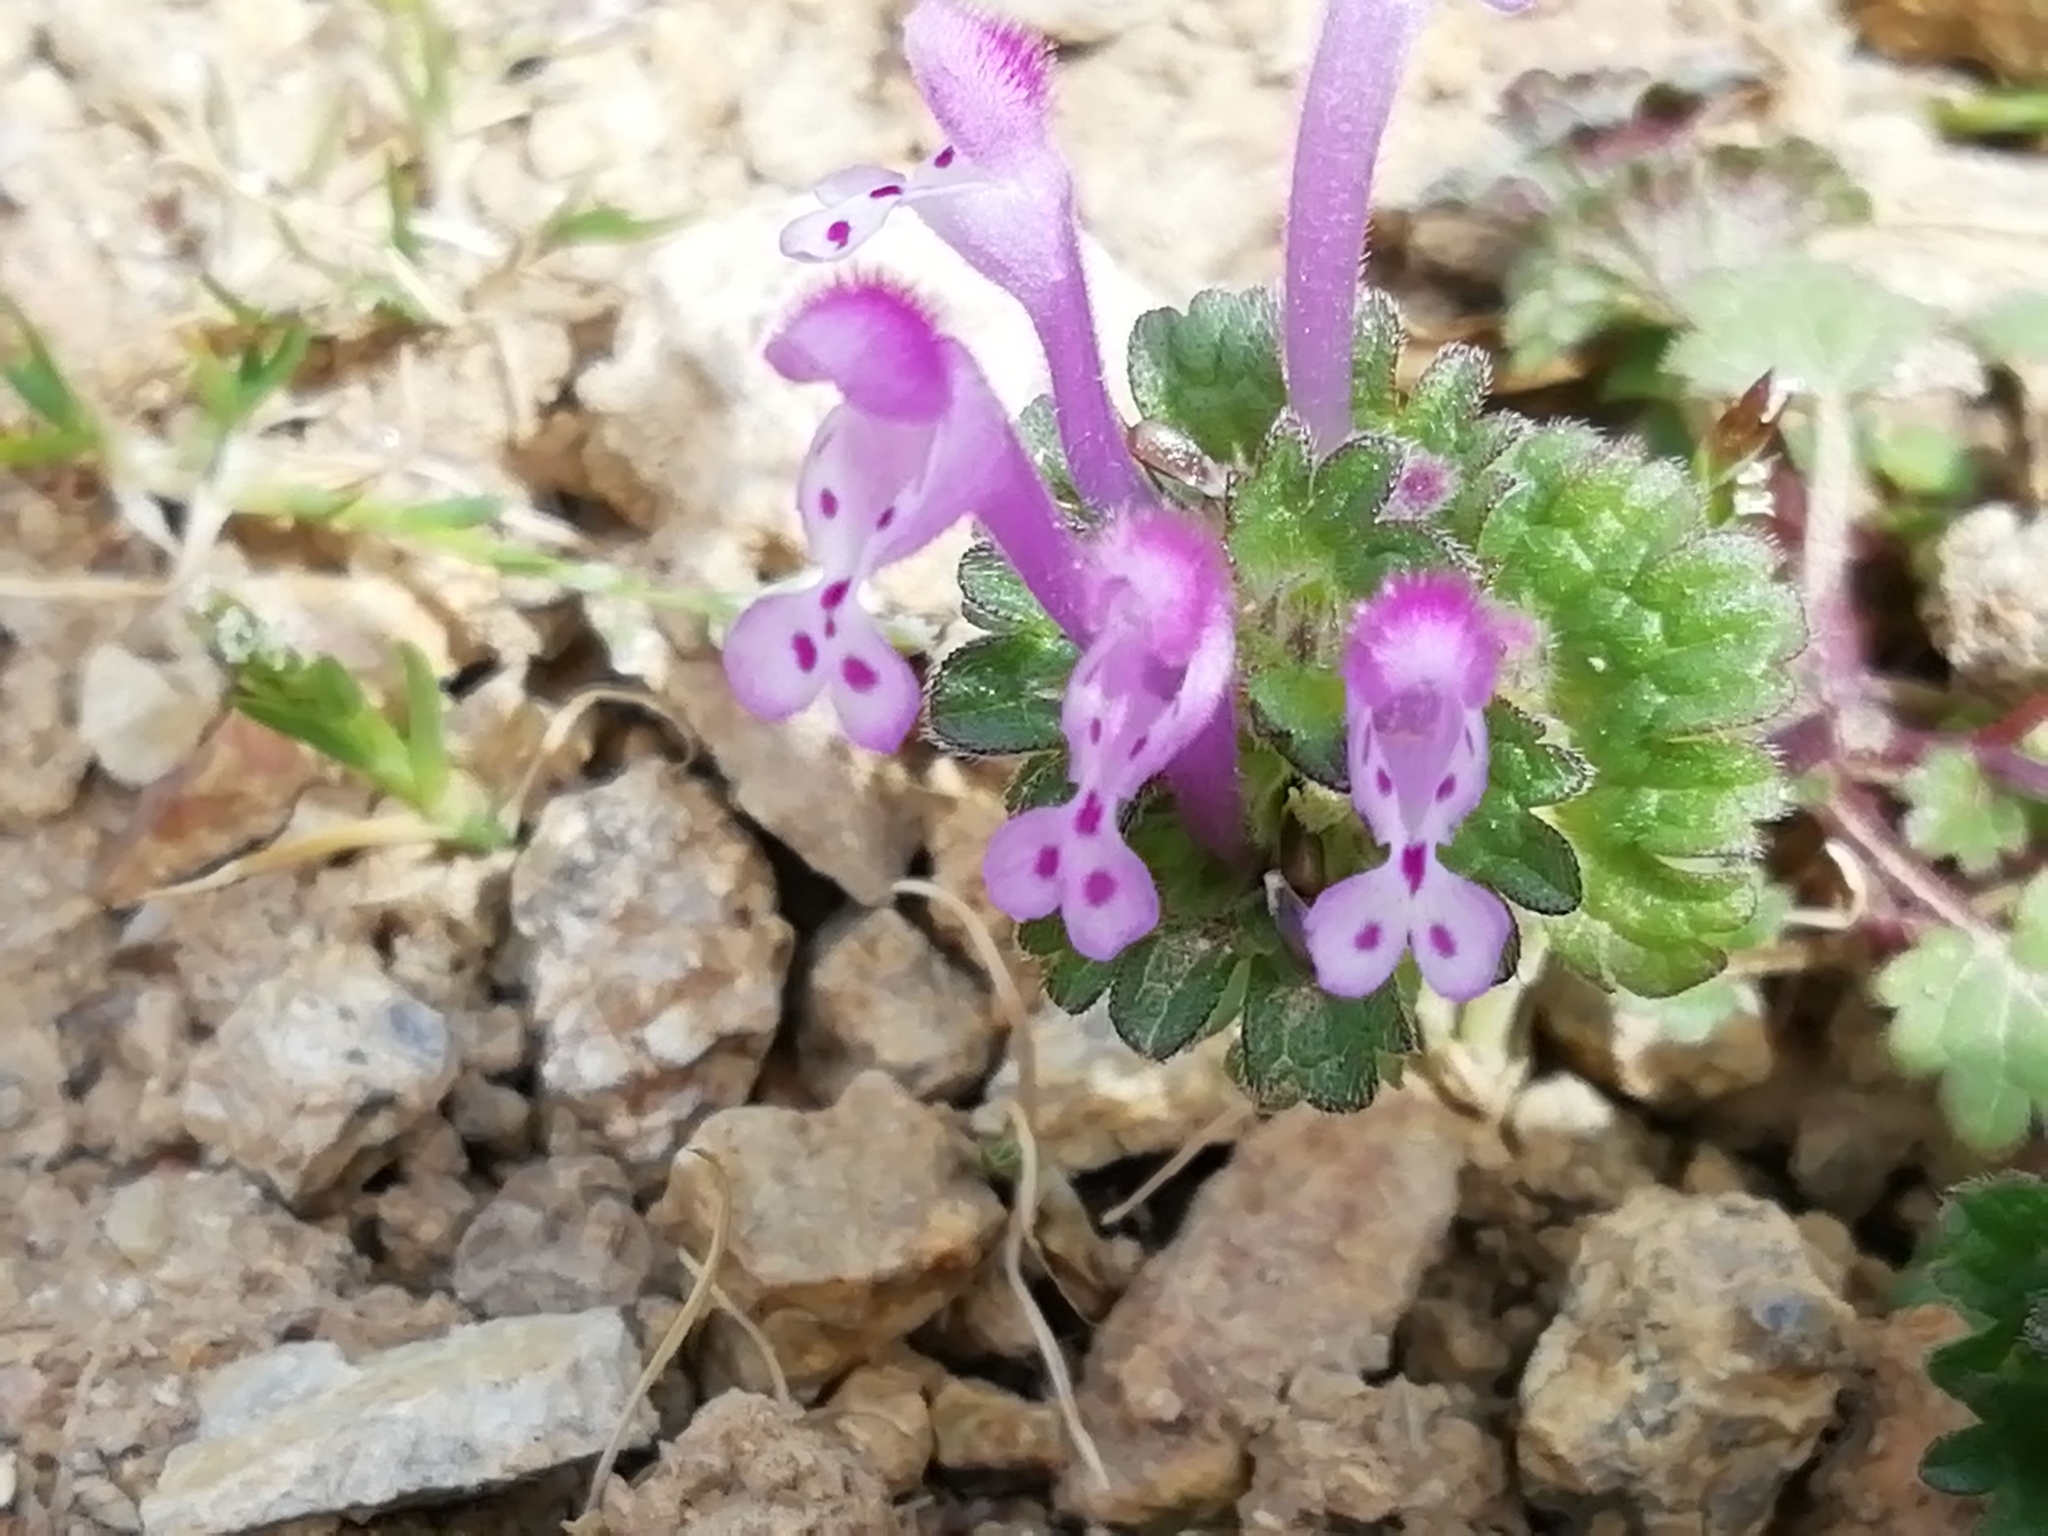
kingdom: Plantae
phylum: Tracheophyta
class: Magnoliopsida
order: Lamiales
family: Lamiaceae
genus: Lamium
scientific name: Lamium amplexicaule
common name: Henbit dead-nettle
